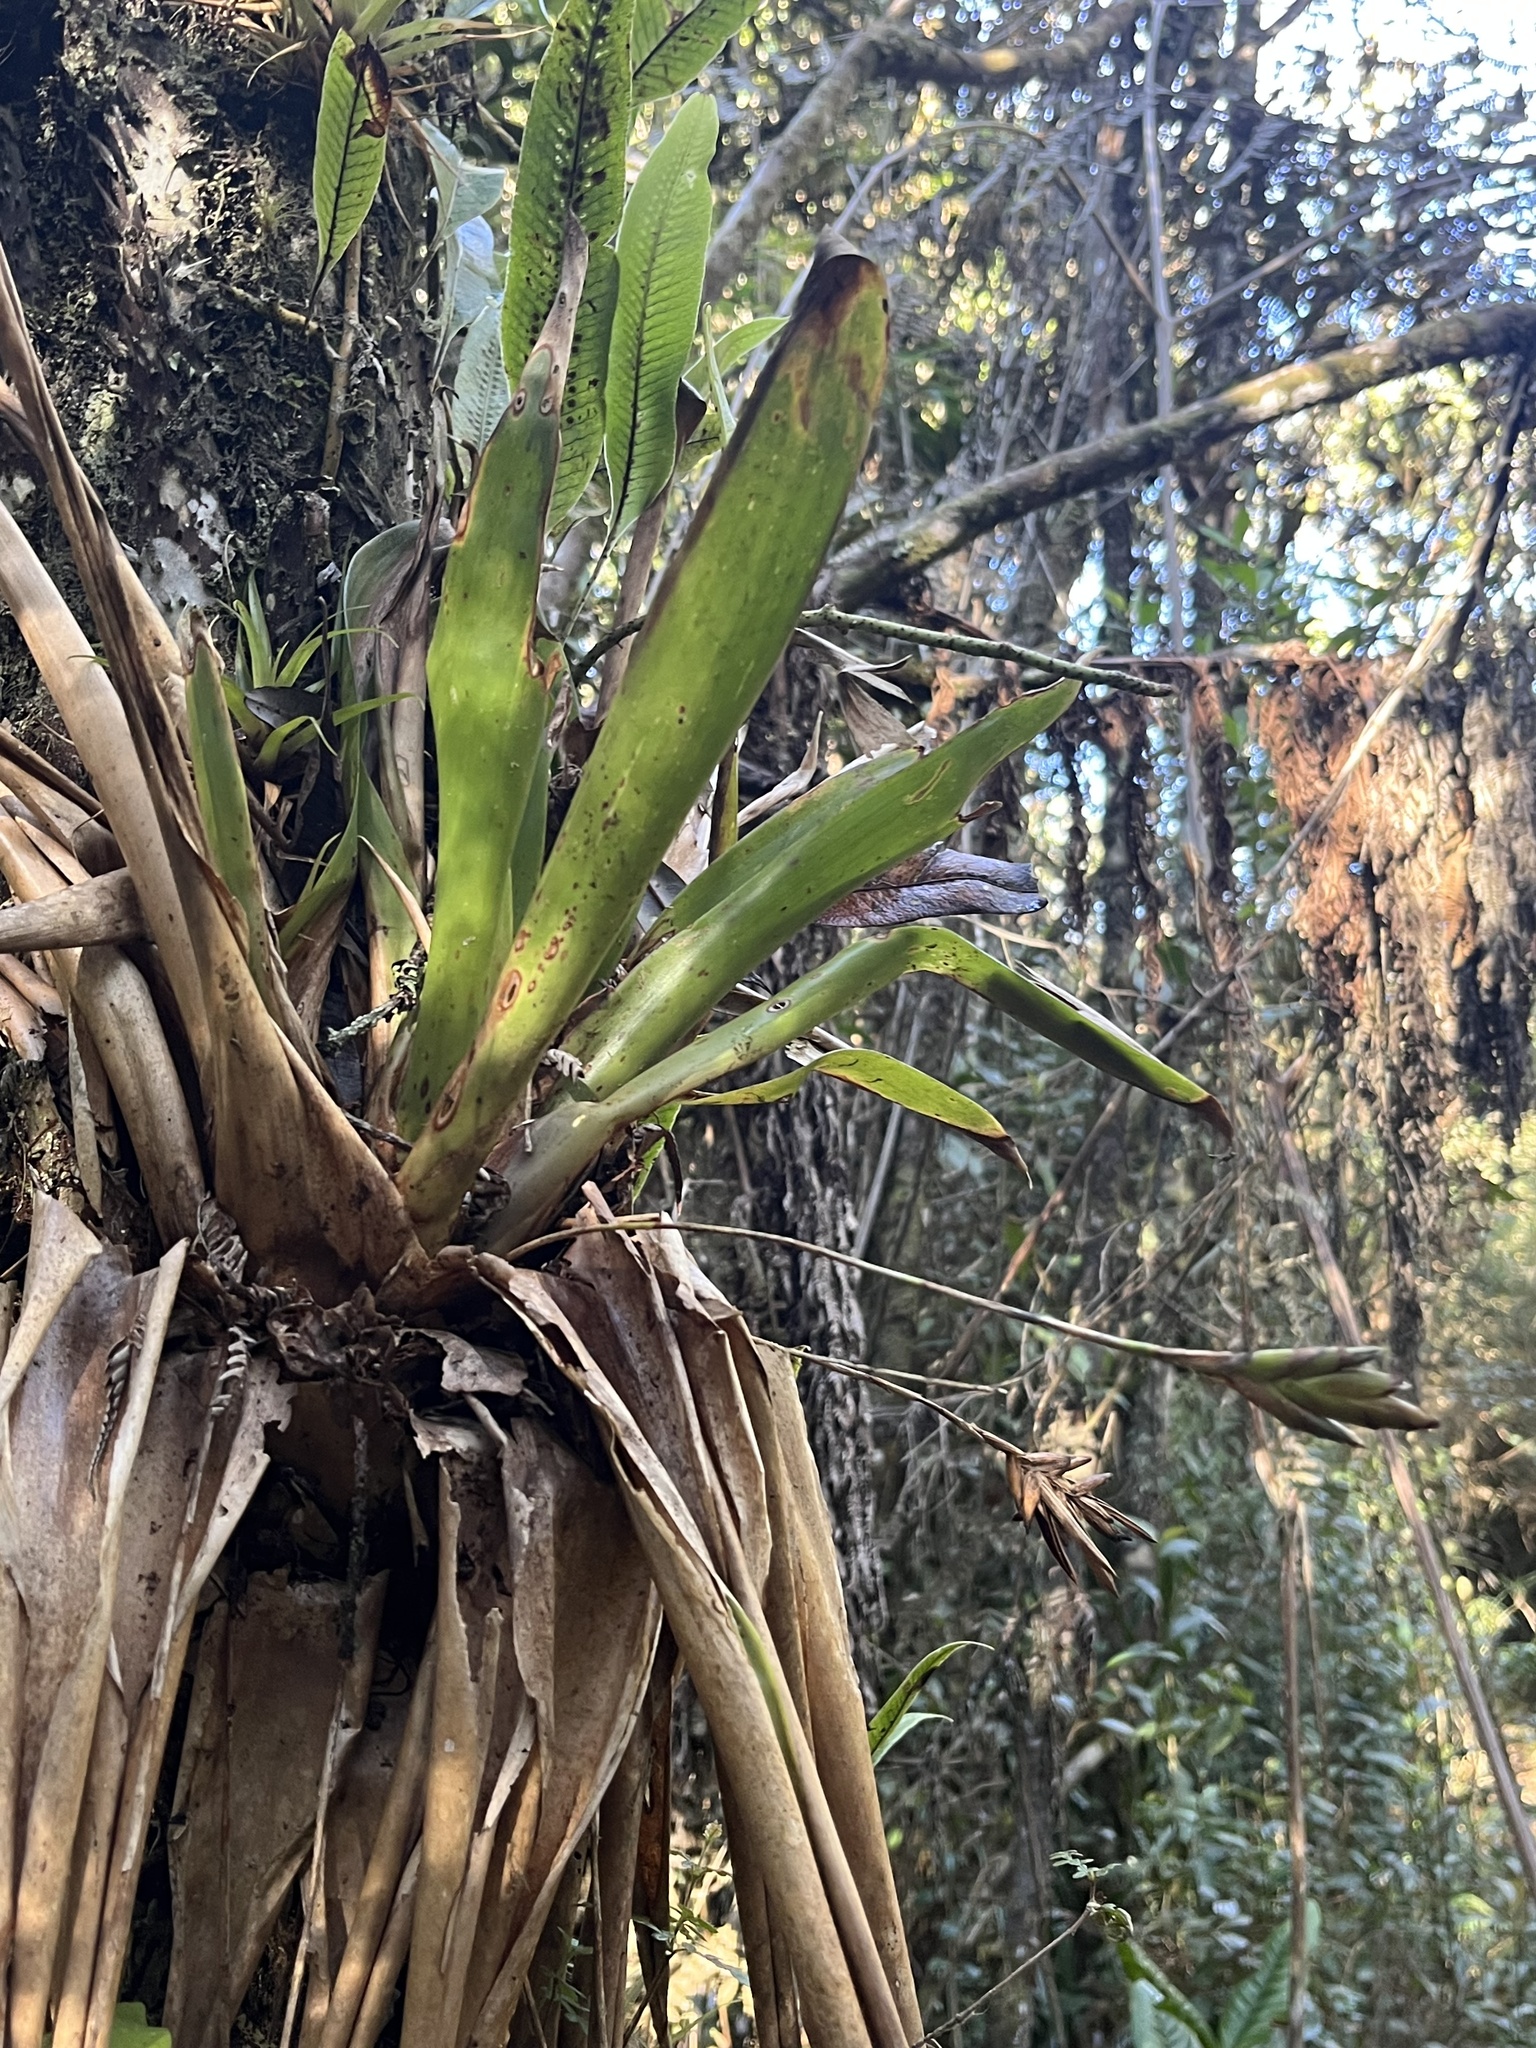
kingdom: Plantae
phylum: Tracheophyta
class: Liliopsida
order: Poales
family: Bromeliaceae
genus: Tillandsia
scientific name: Tillandsia complanata
